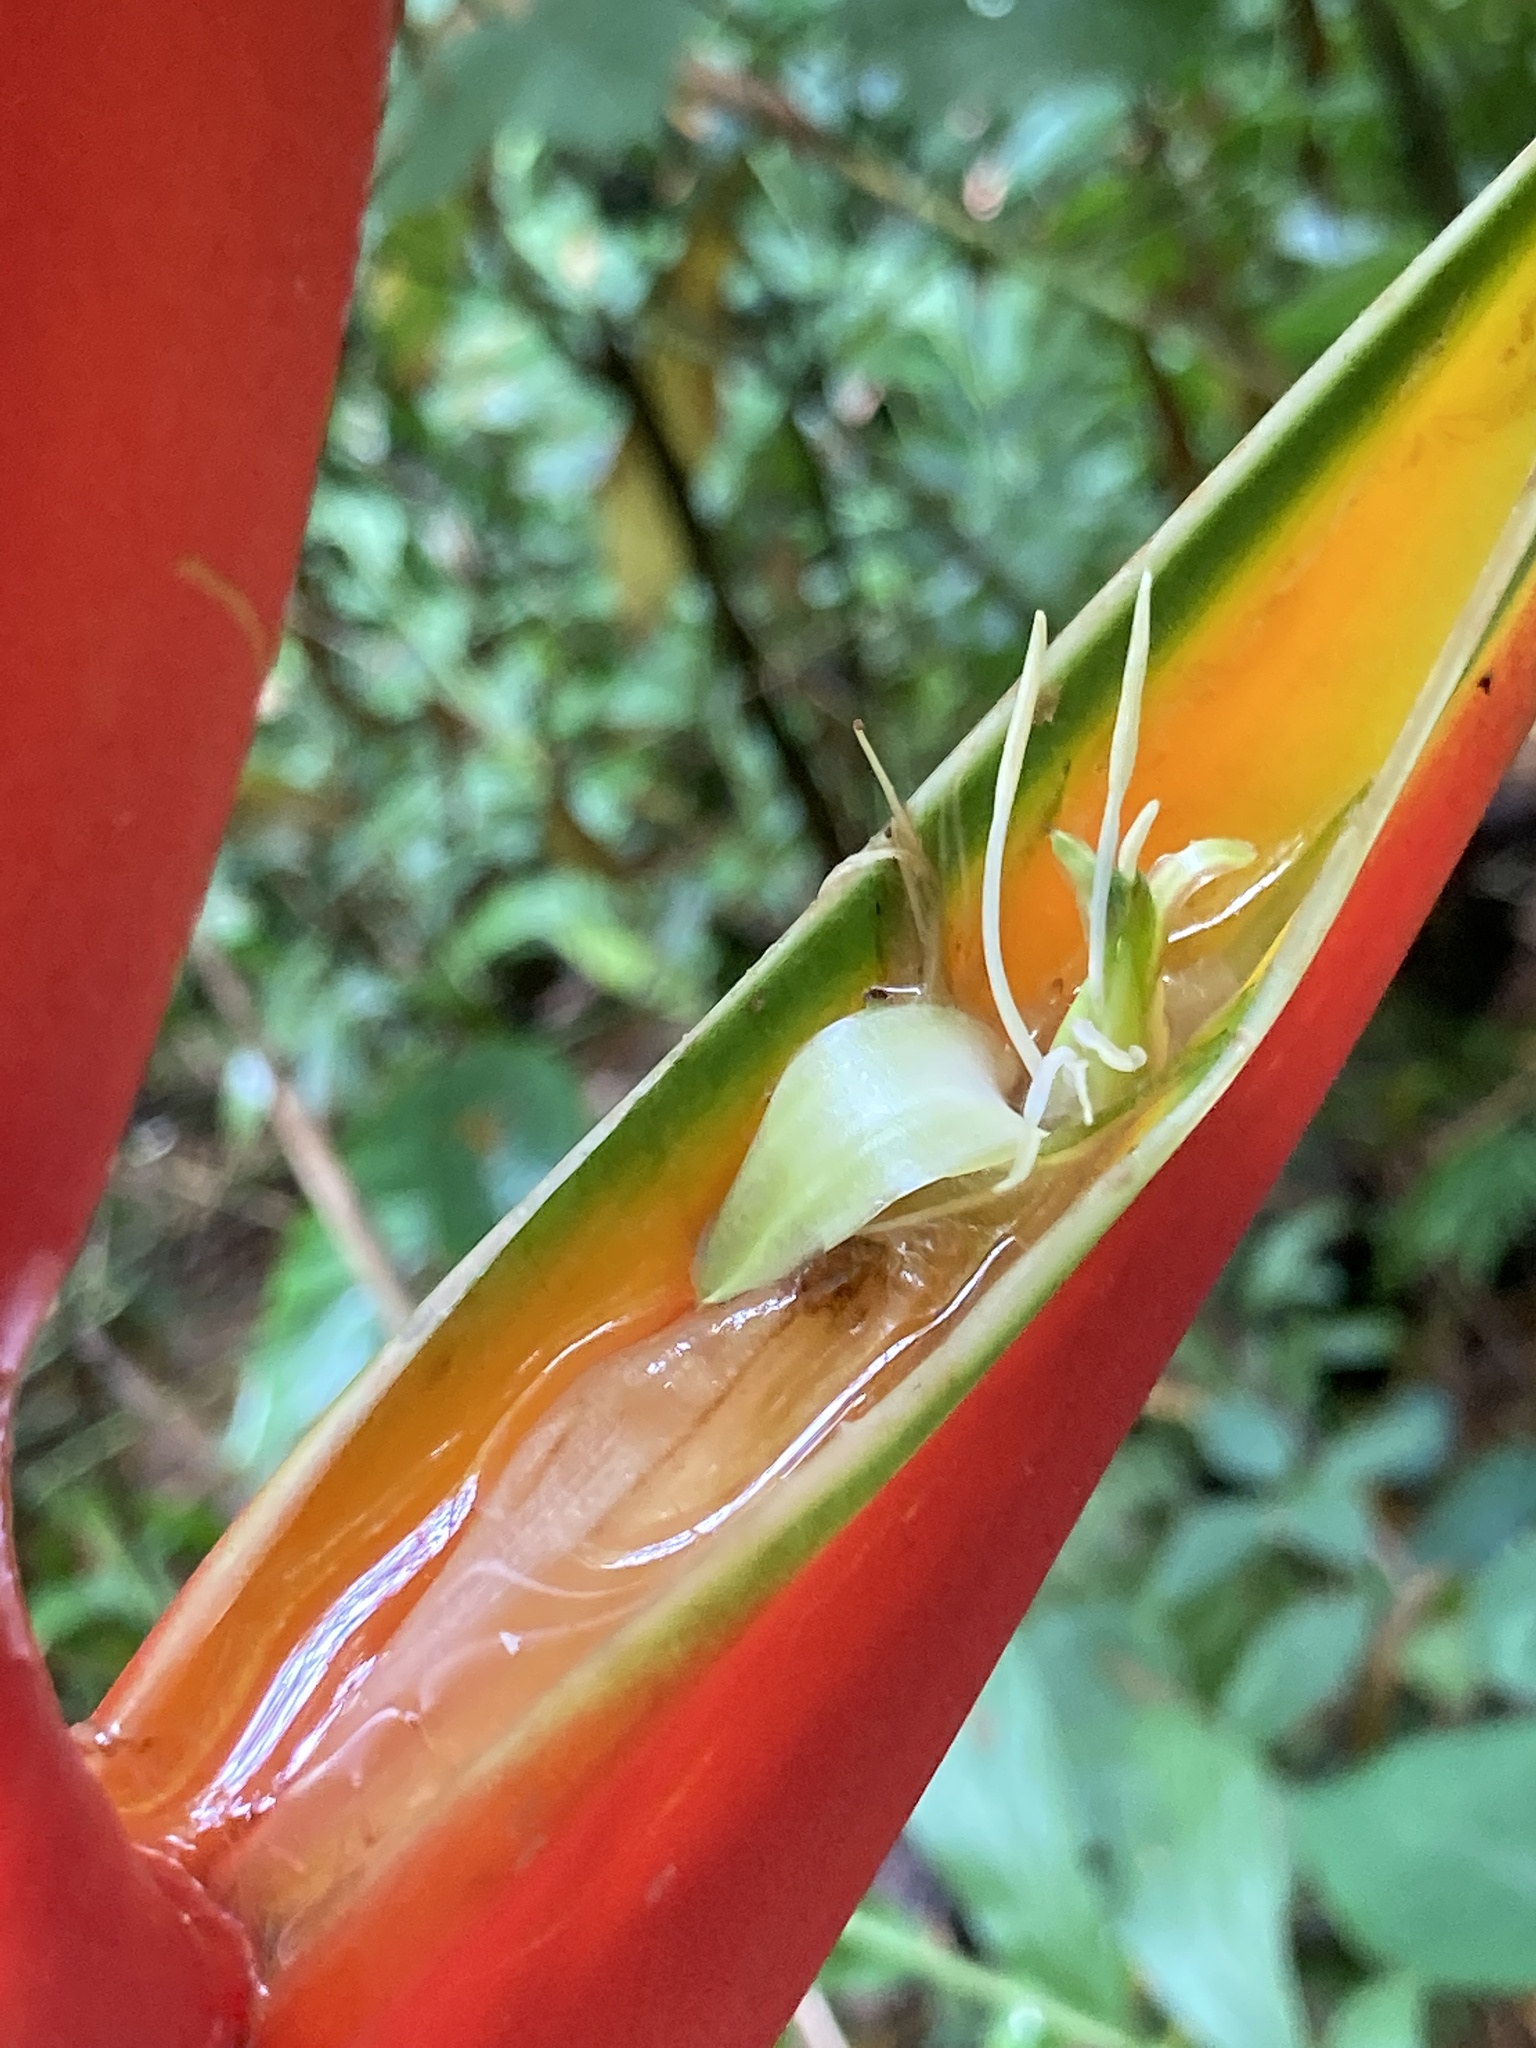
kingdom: Plantae
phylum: Tracheophyta
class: Liliopsida
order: Zingiberales
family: Heliconiaceae
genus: Heliconia
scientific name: Heliconia bihai
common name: Macaw flower
